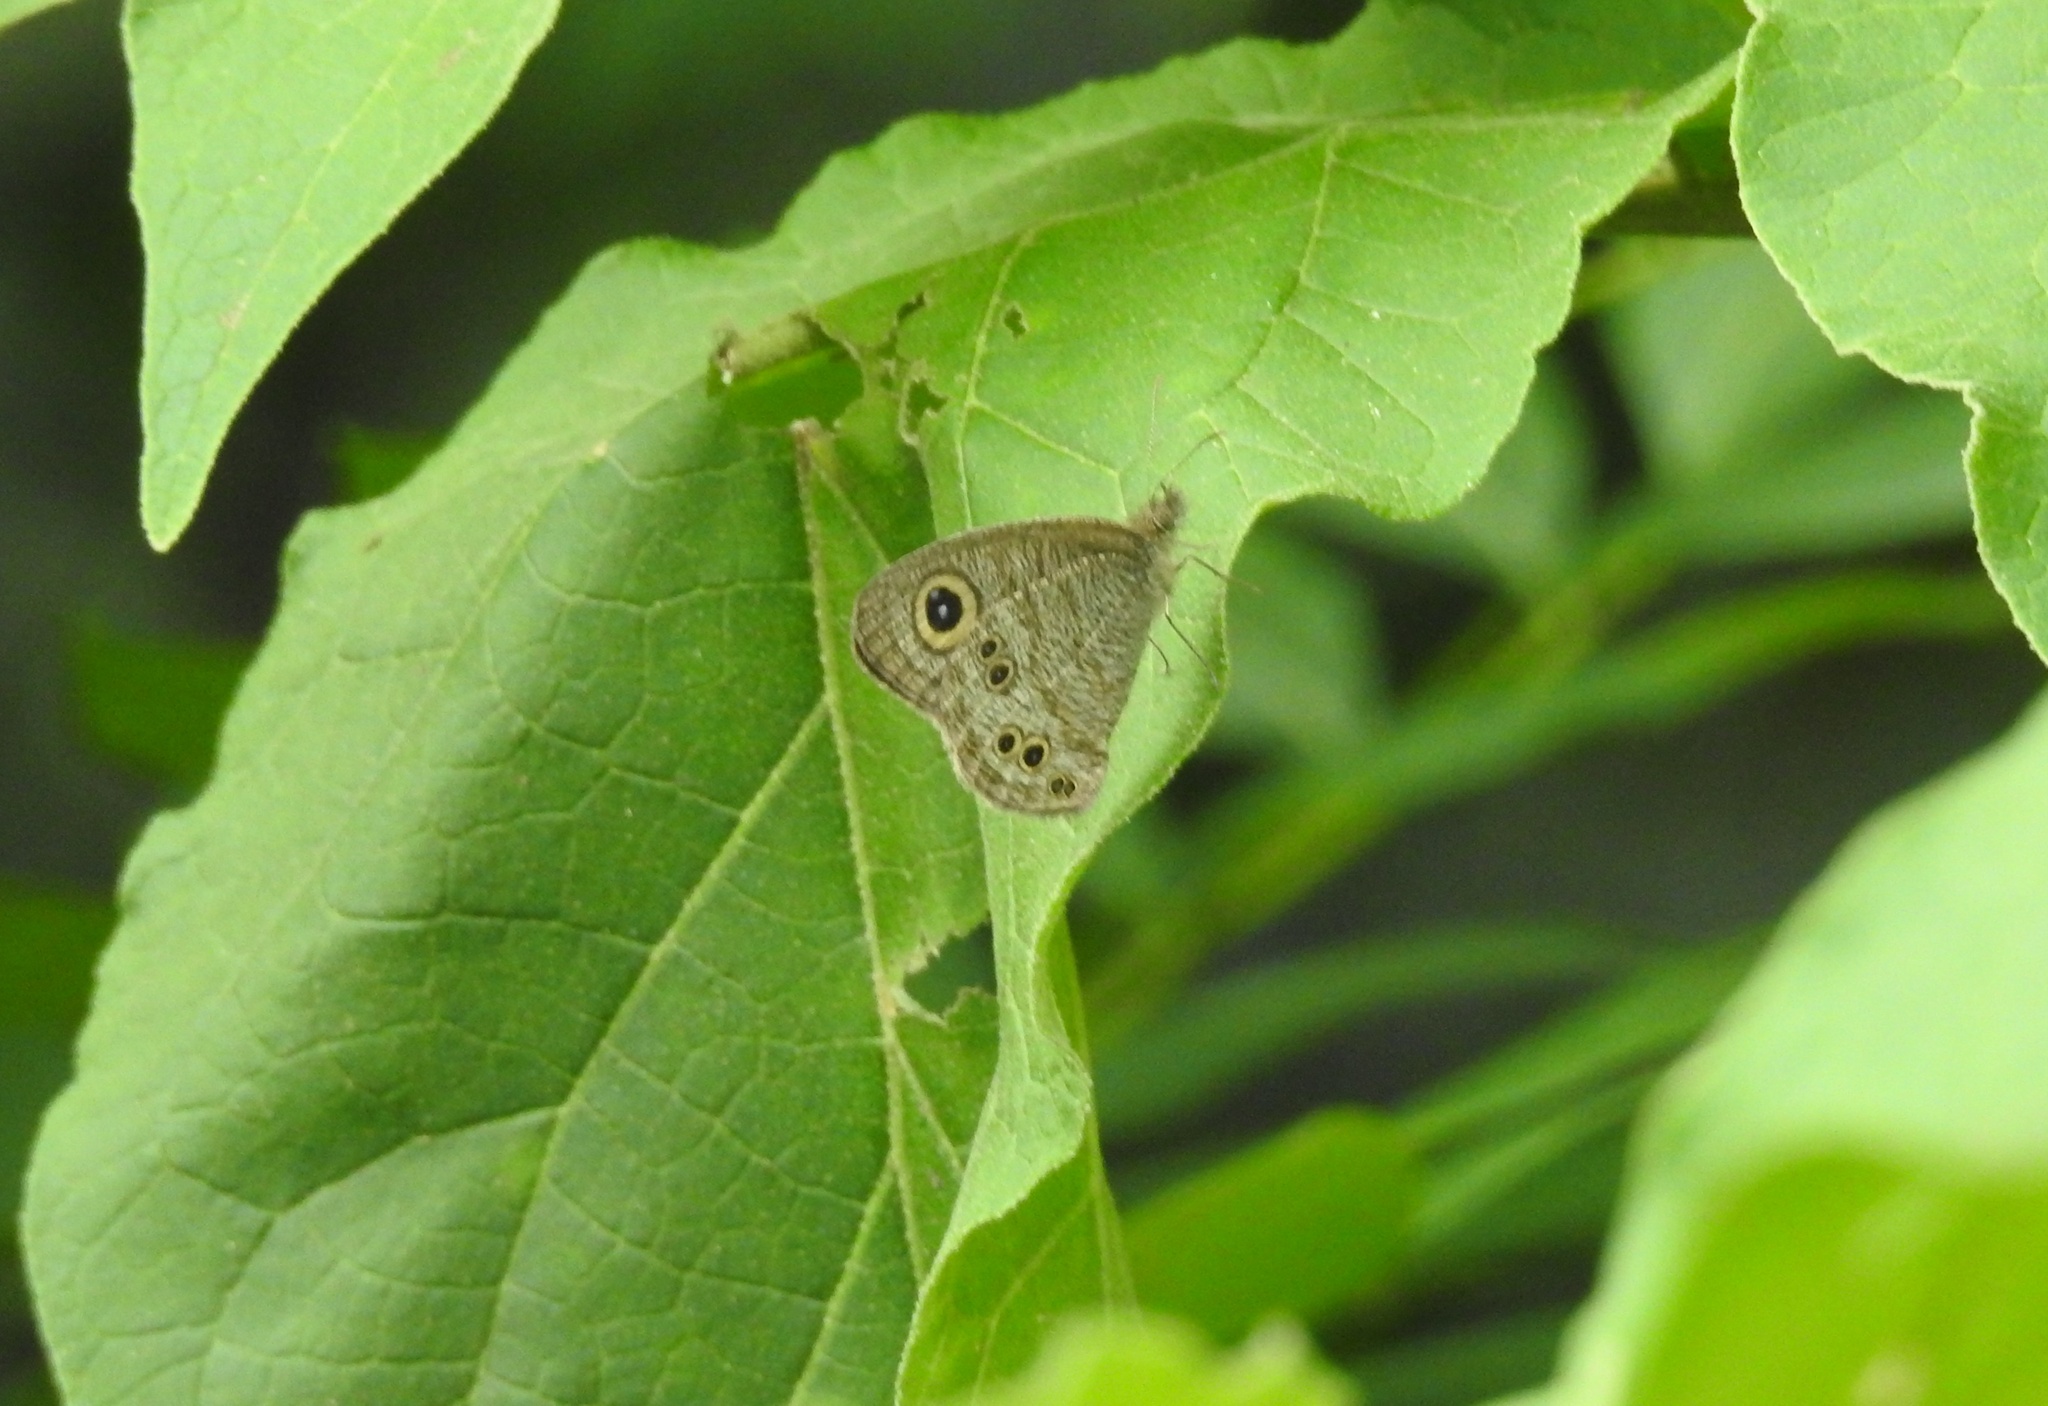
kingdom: Animalia
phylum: Arthropoda
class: Insecta
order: Lepidoptera
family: Nymphalidae
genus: Ypthima
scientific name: Ypthima baldus
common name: Common five-ring
